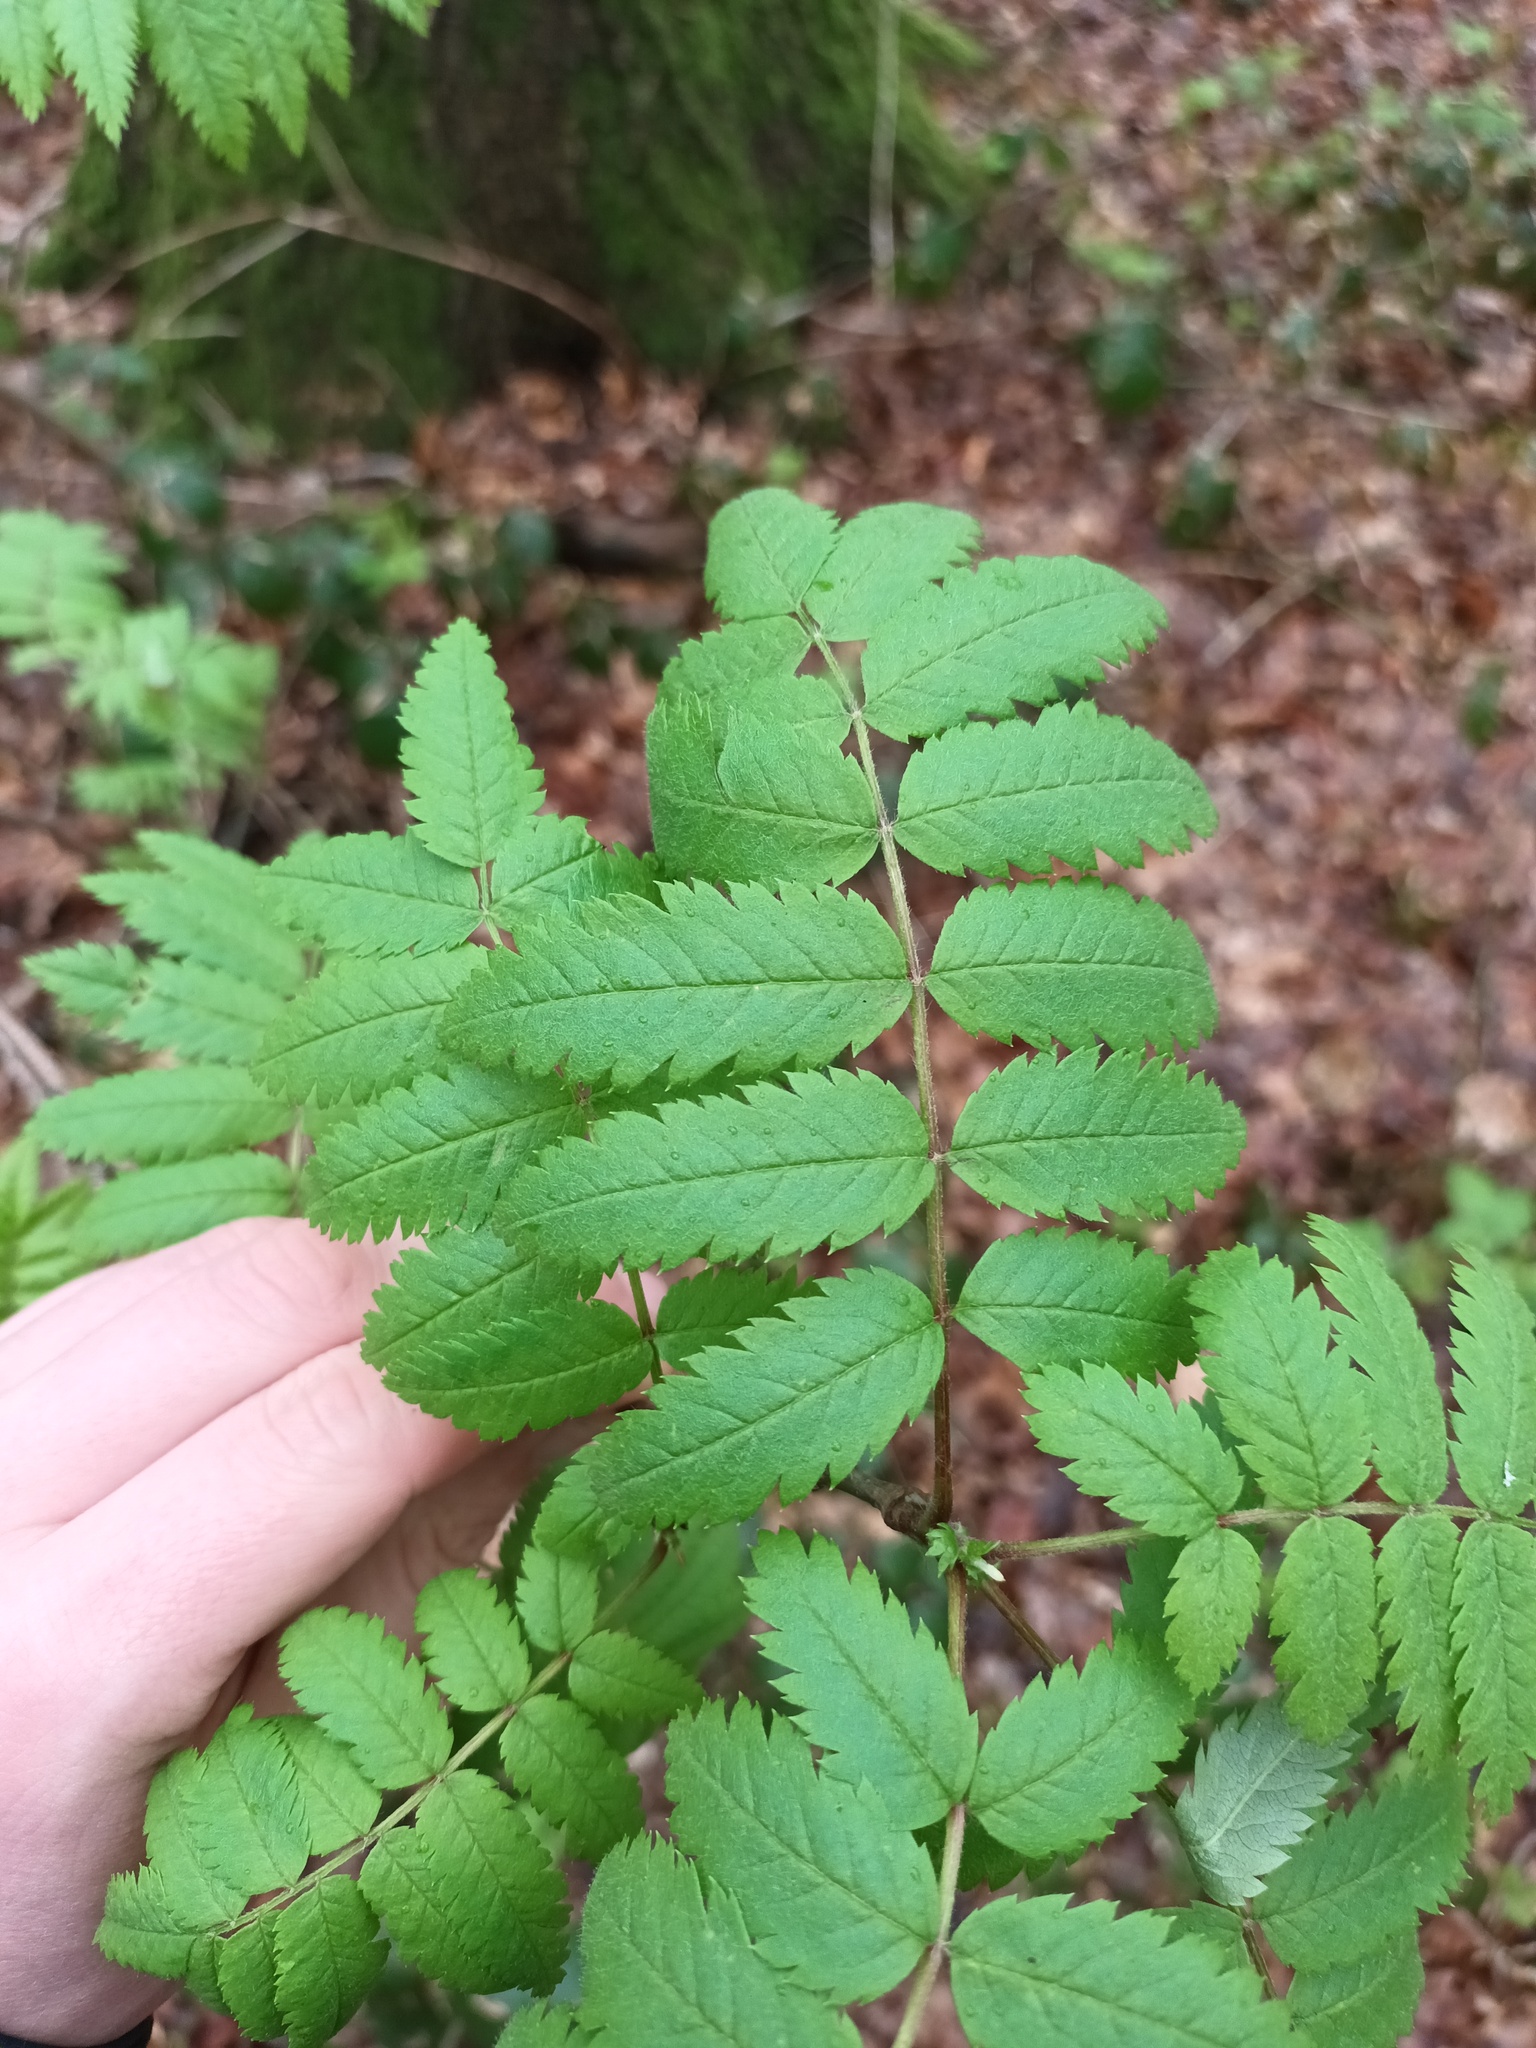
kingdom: Plantae
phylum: Tracheophyta
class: Magnoliopsida
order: Rosales
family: Rosaceae
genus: Sorbus
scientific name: Sorbus aucuparia
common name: Rowan
